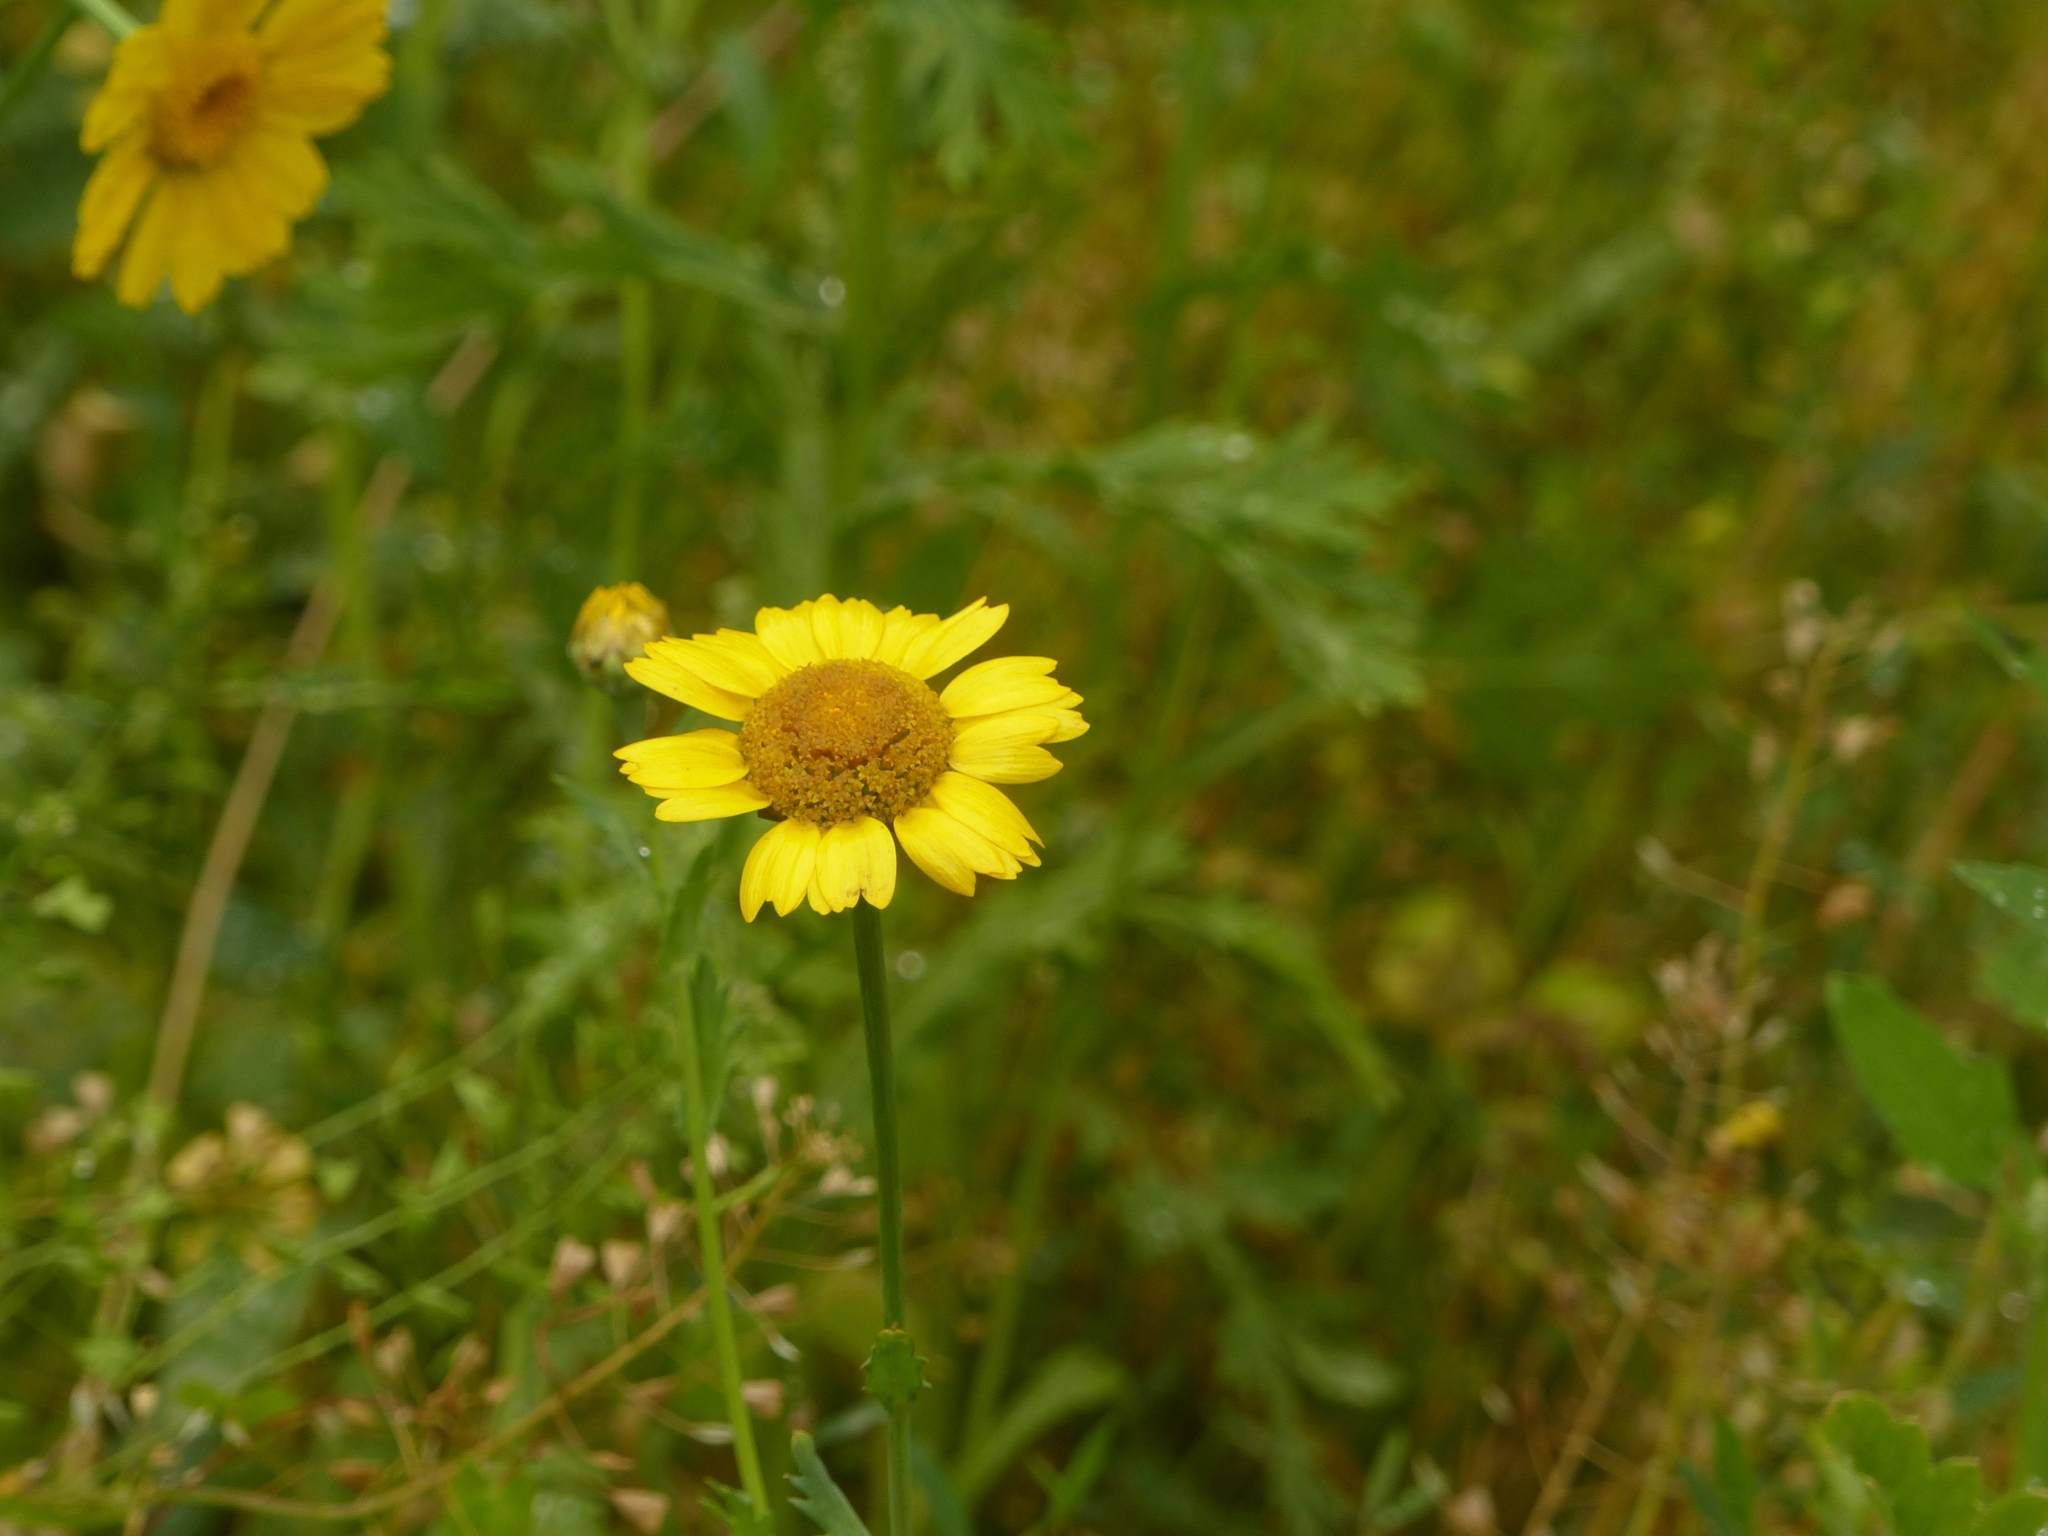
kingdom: Plantae
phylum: Tracheophyta
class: Magnoliopsida
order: Asterales
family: Asteraceae
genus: Glebionis
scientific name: Glebionis segetum
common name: Corndaisy
